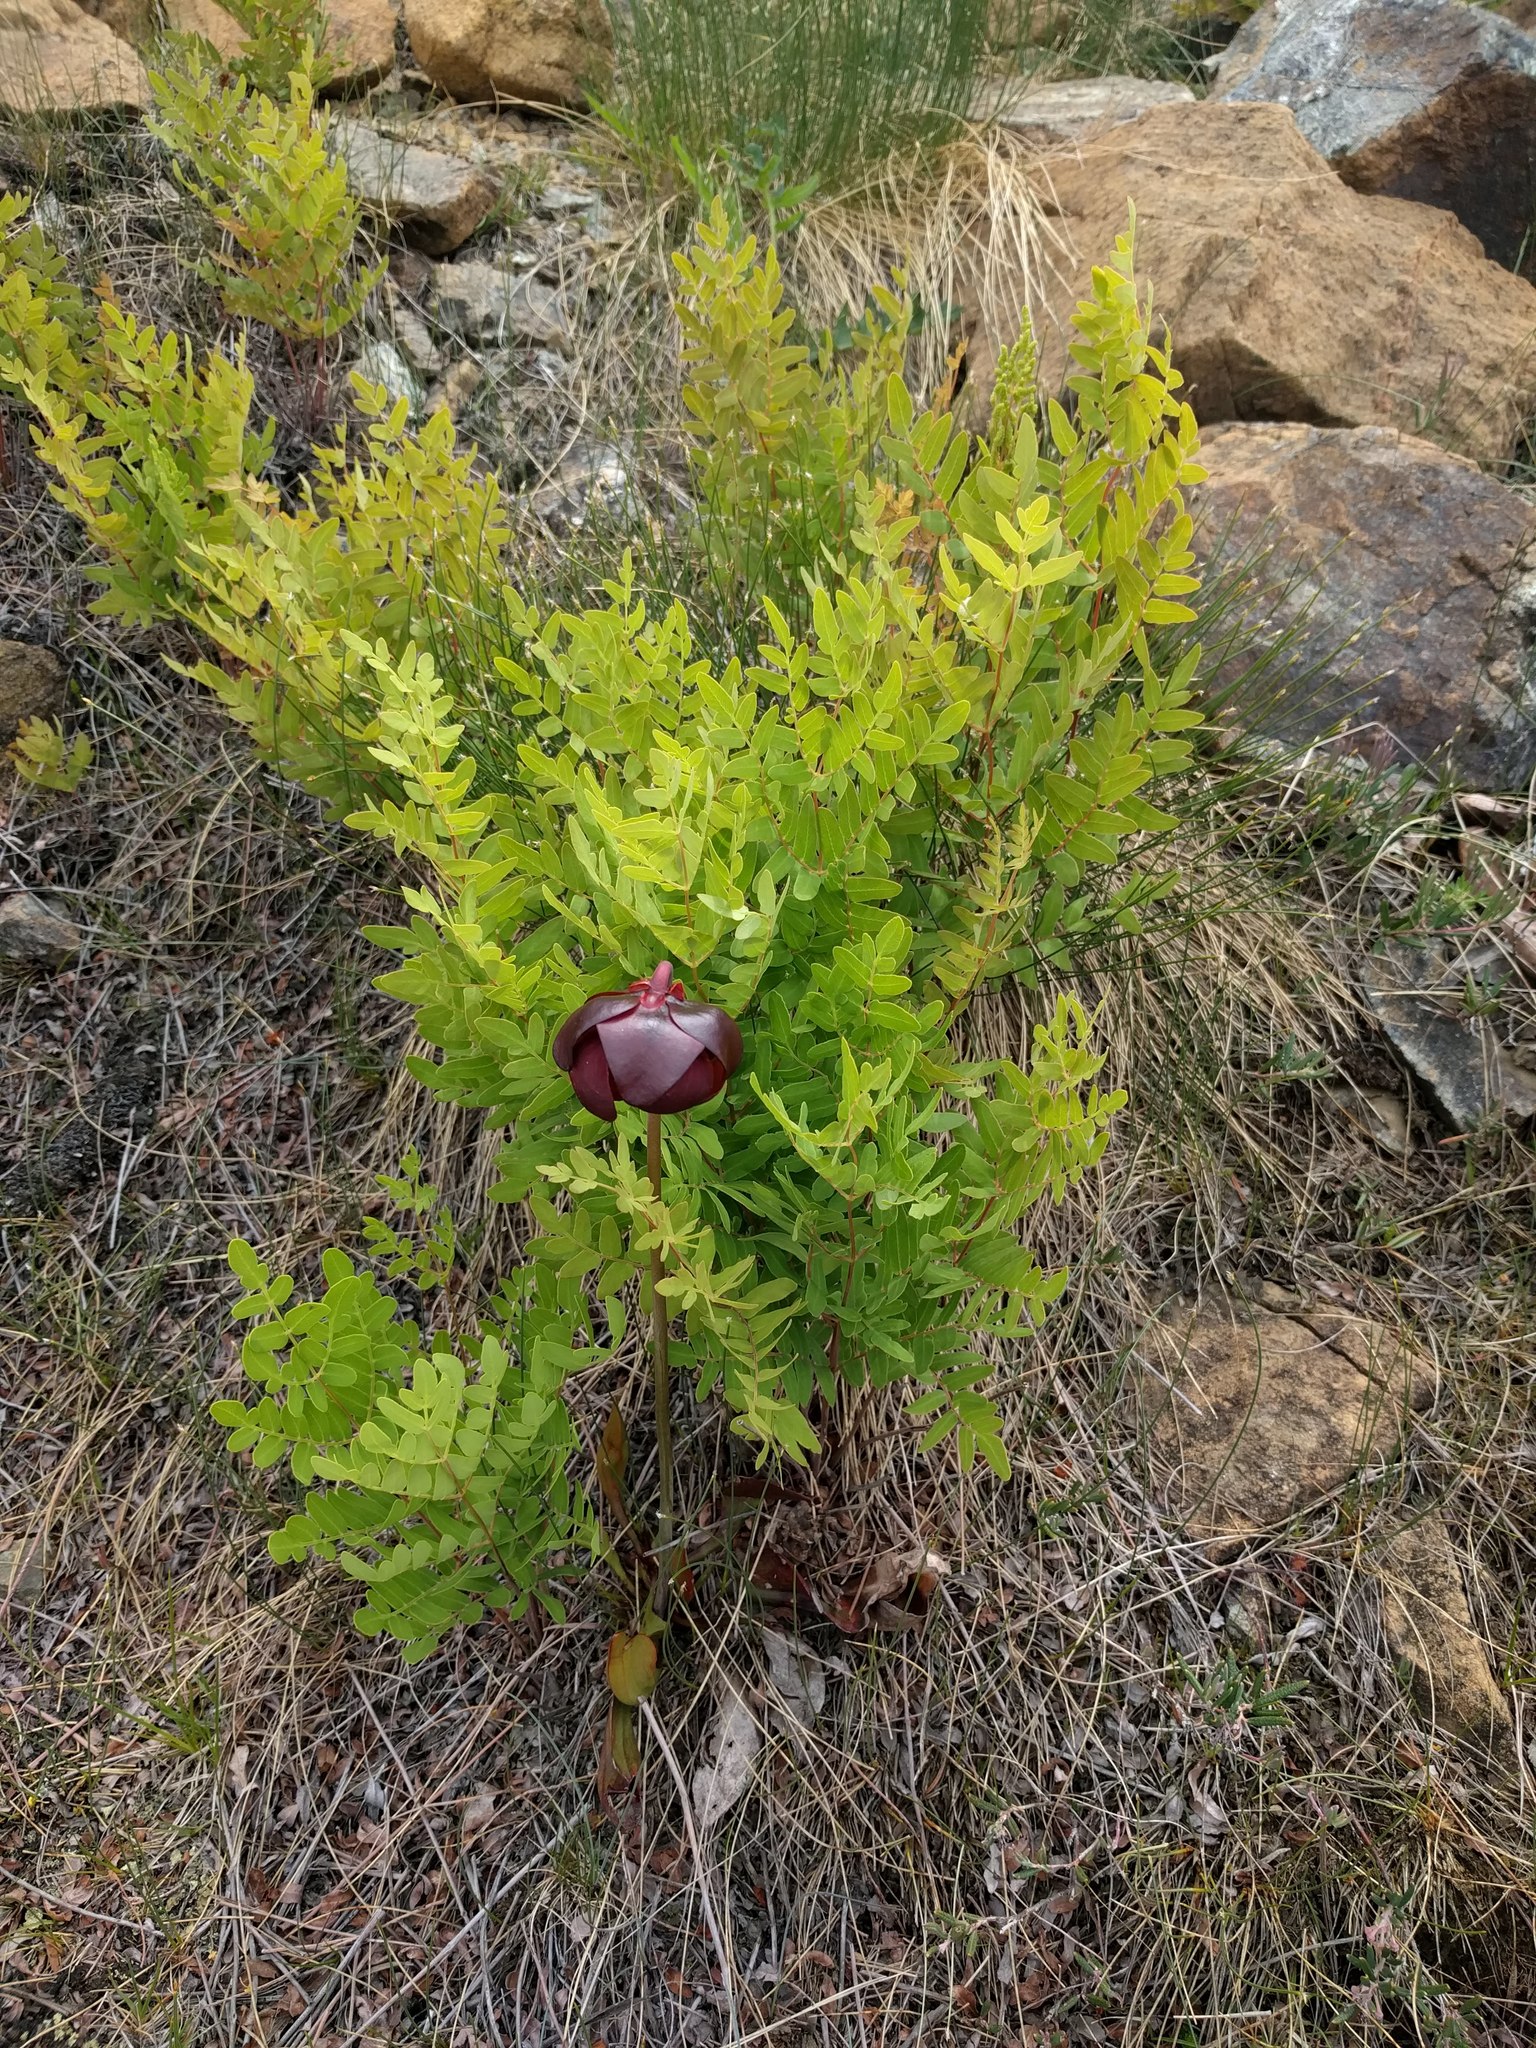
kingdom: Plantae
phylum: Tracheophyta
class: Polypodiopsida
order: Osmundales
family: Osmundaceae
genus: Osmunda
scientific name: Osmunda spectabilis
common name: American royal fern
